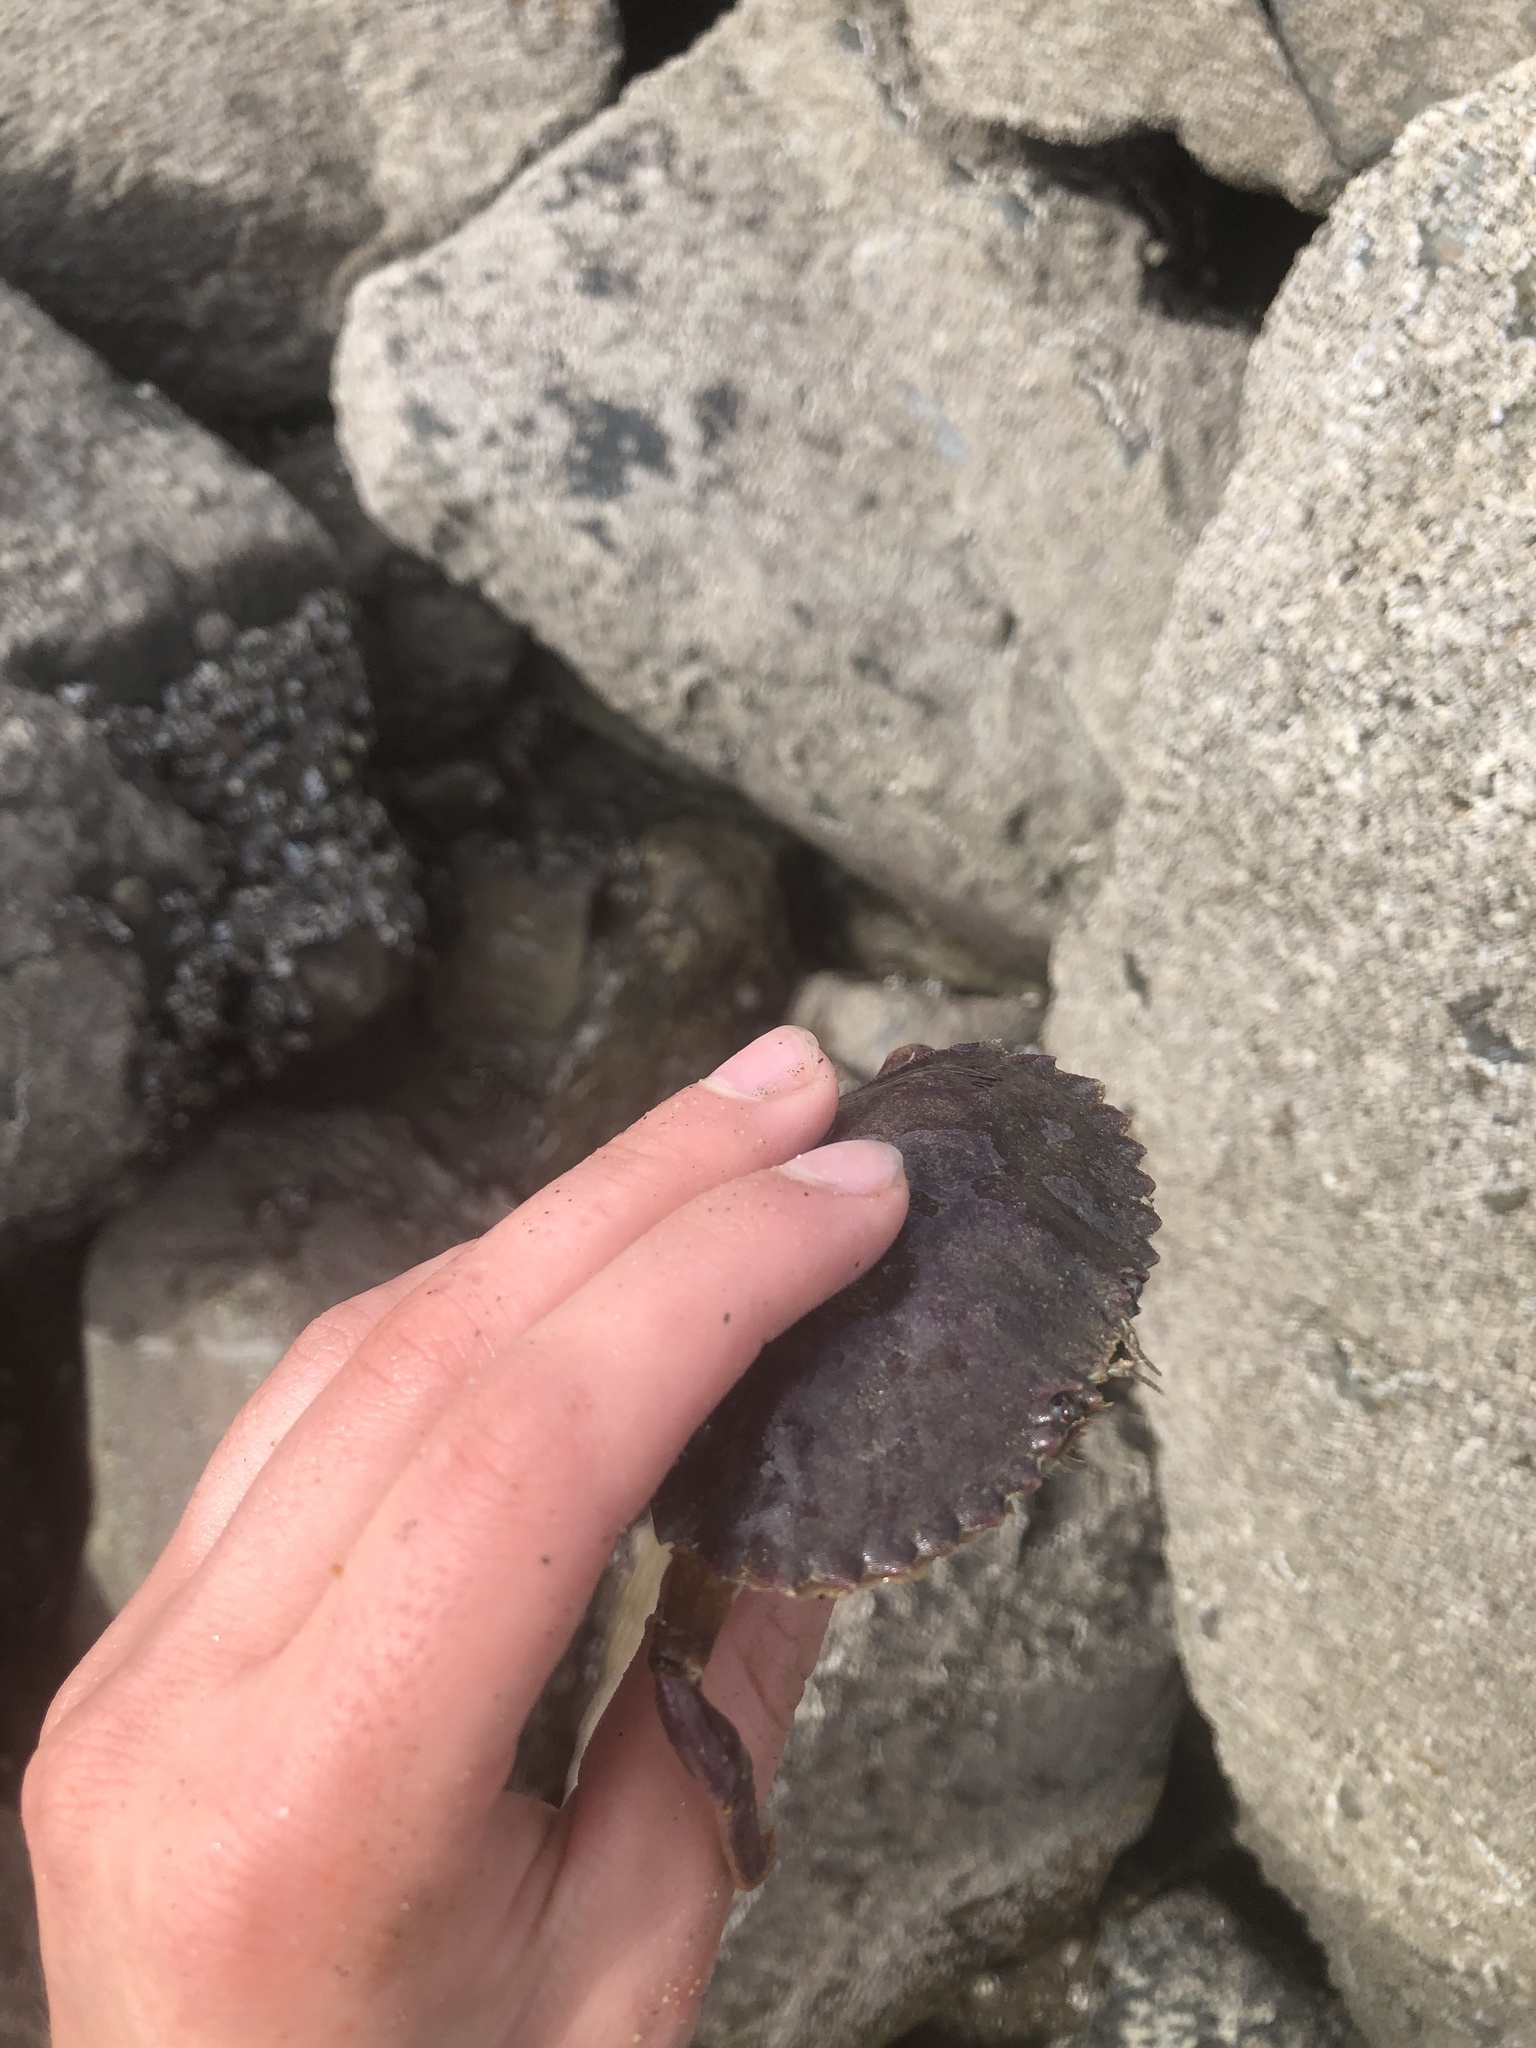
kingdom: Animalia
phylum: Arthropoda
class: Malacostraca
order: Decapoda
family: Cancridae
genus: Metacarcinus
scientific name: Metacarcinus anthonyi
